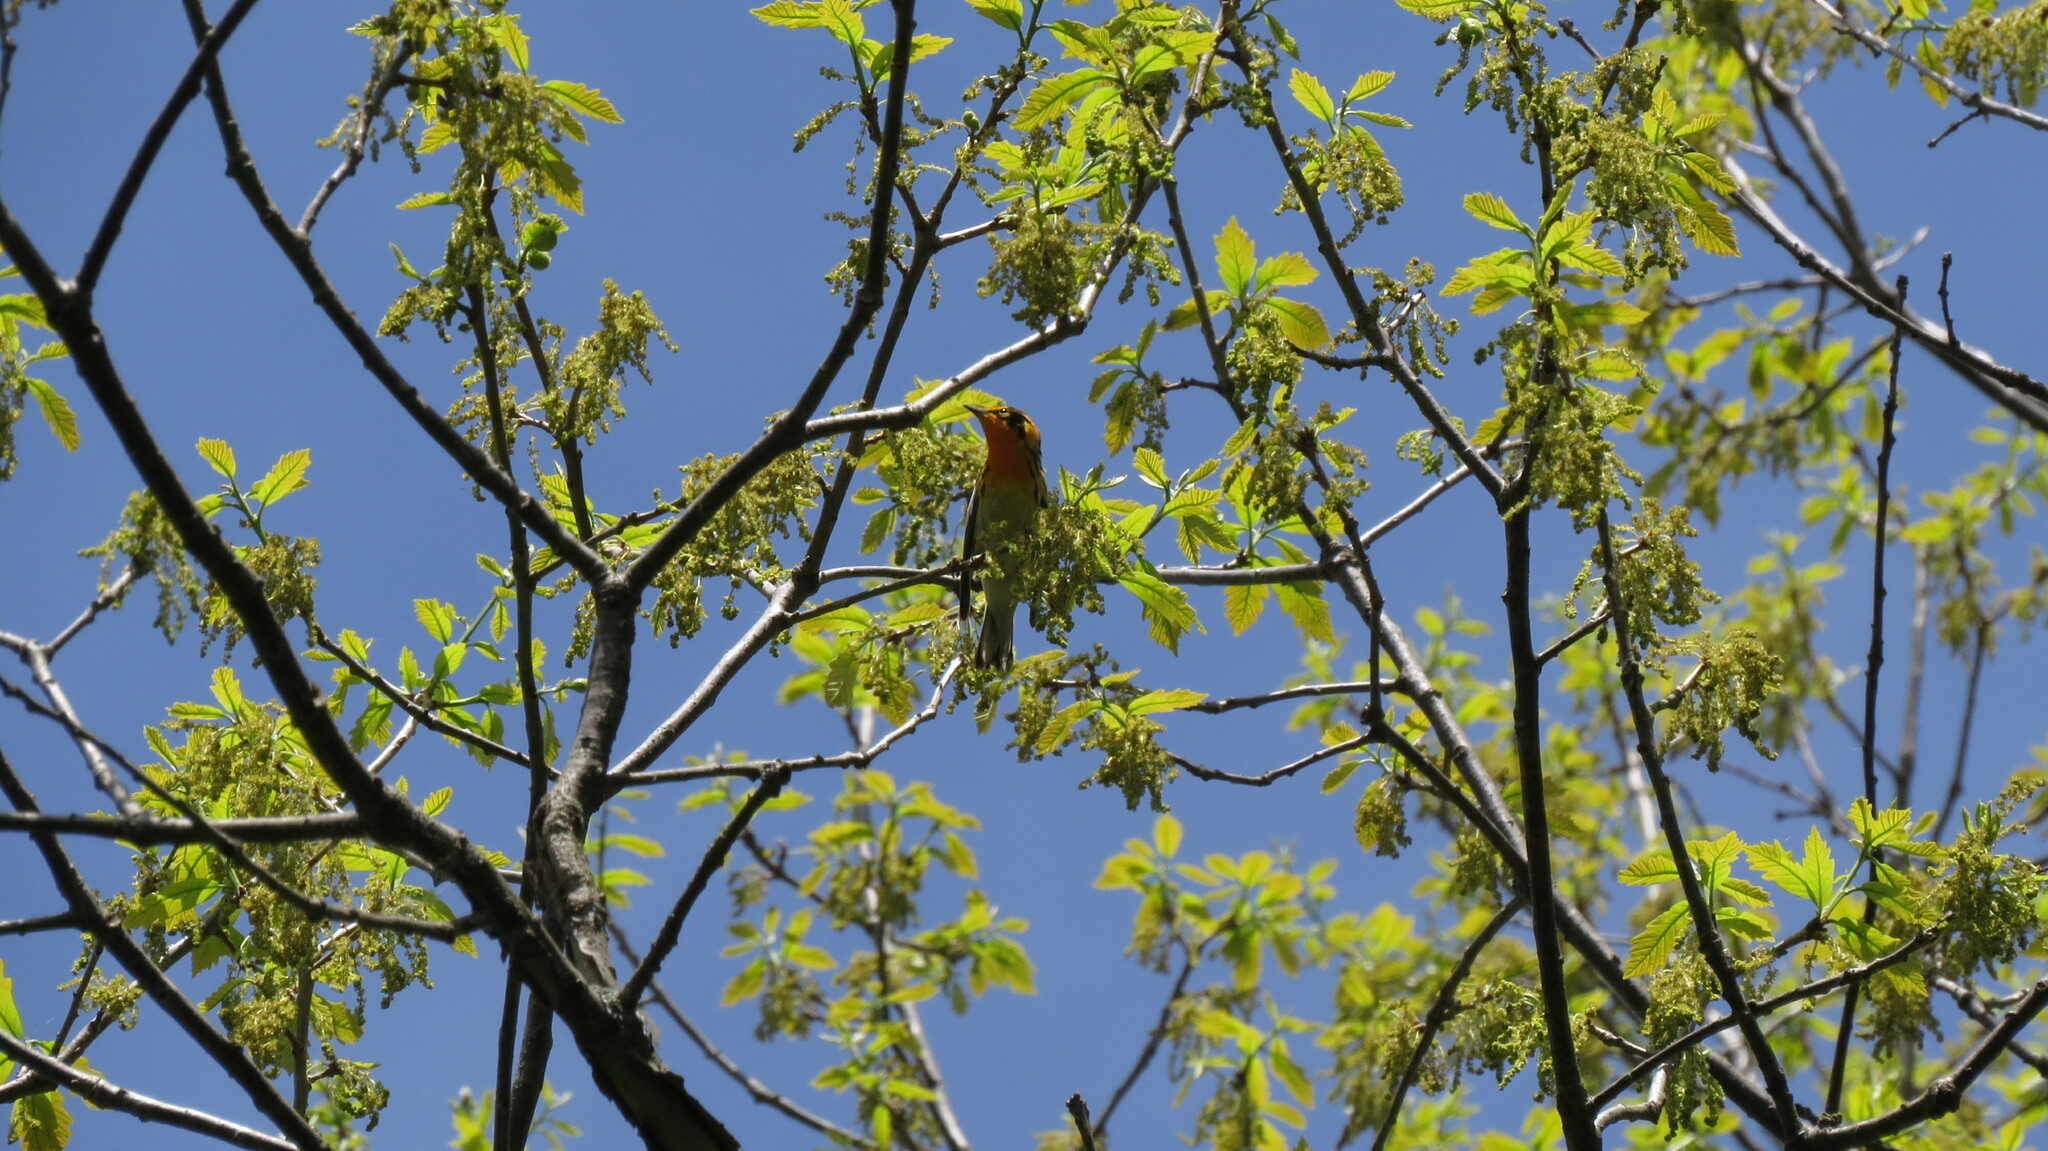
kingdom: Animalia
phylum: Chordata
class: Aves
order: Passeriformes
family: Parulidae
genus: Setophaga
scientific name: Setophaga fusca
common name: Blackburnian warbler
